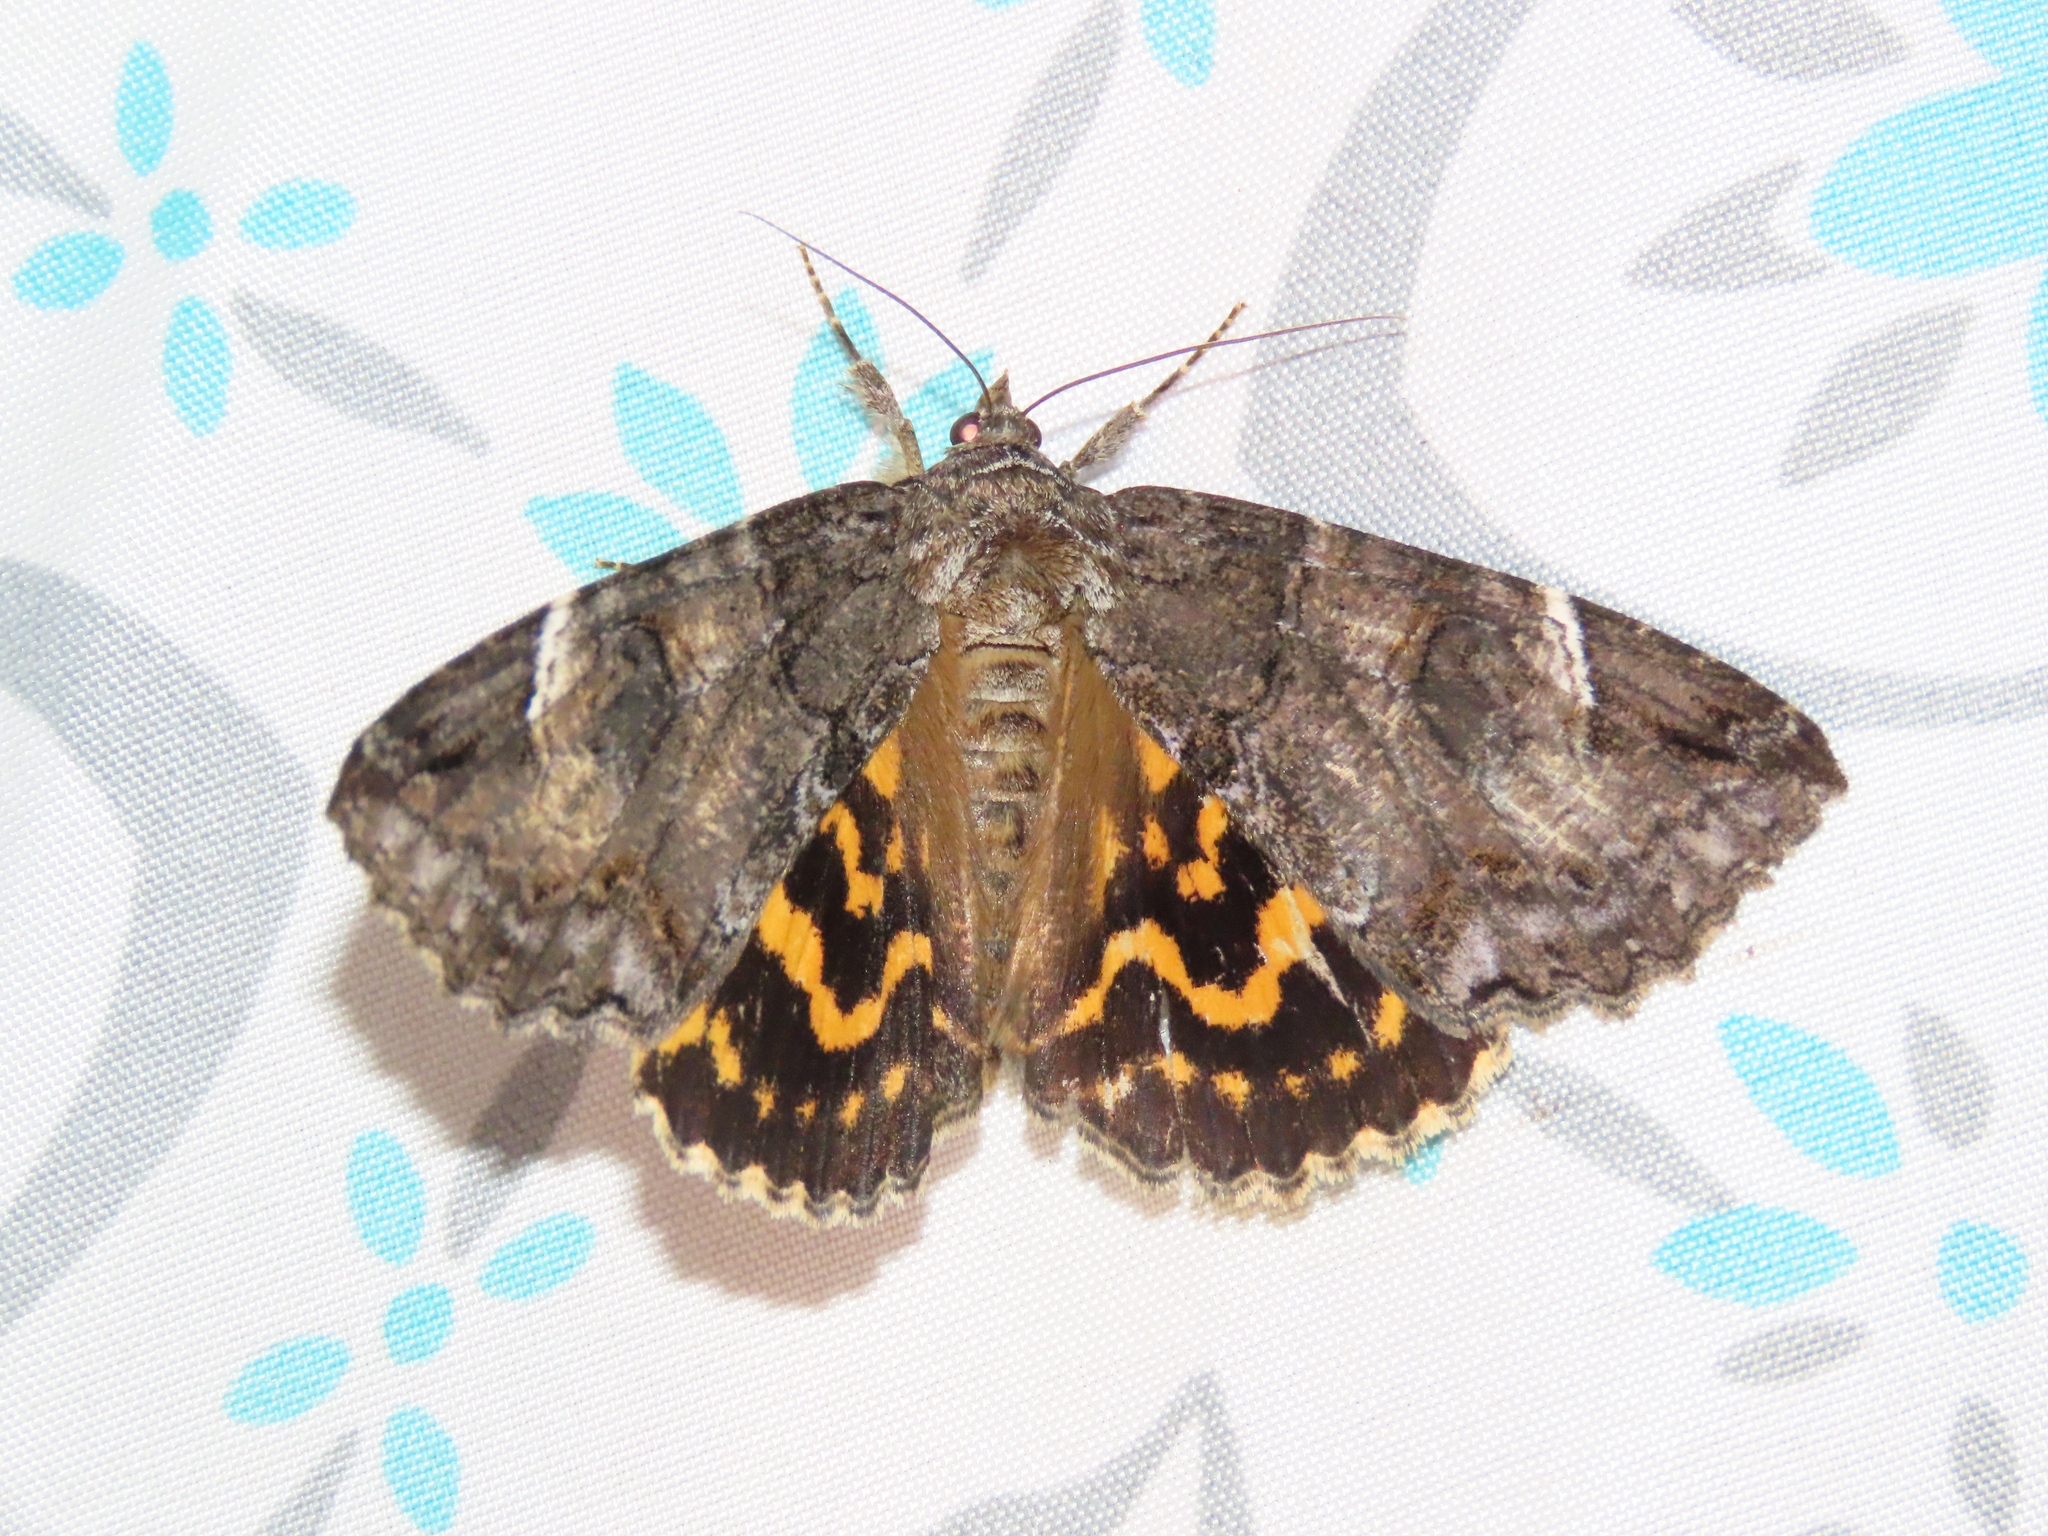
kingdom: Animalia
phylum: Arthropoda
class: Insecta
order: Lepidoptera
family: Erebidae
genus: Euparthenos
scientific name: Euparthenos nubilis
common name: Locust underwing
